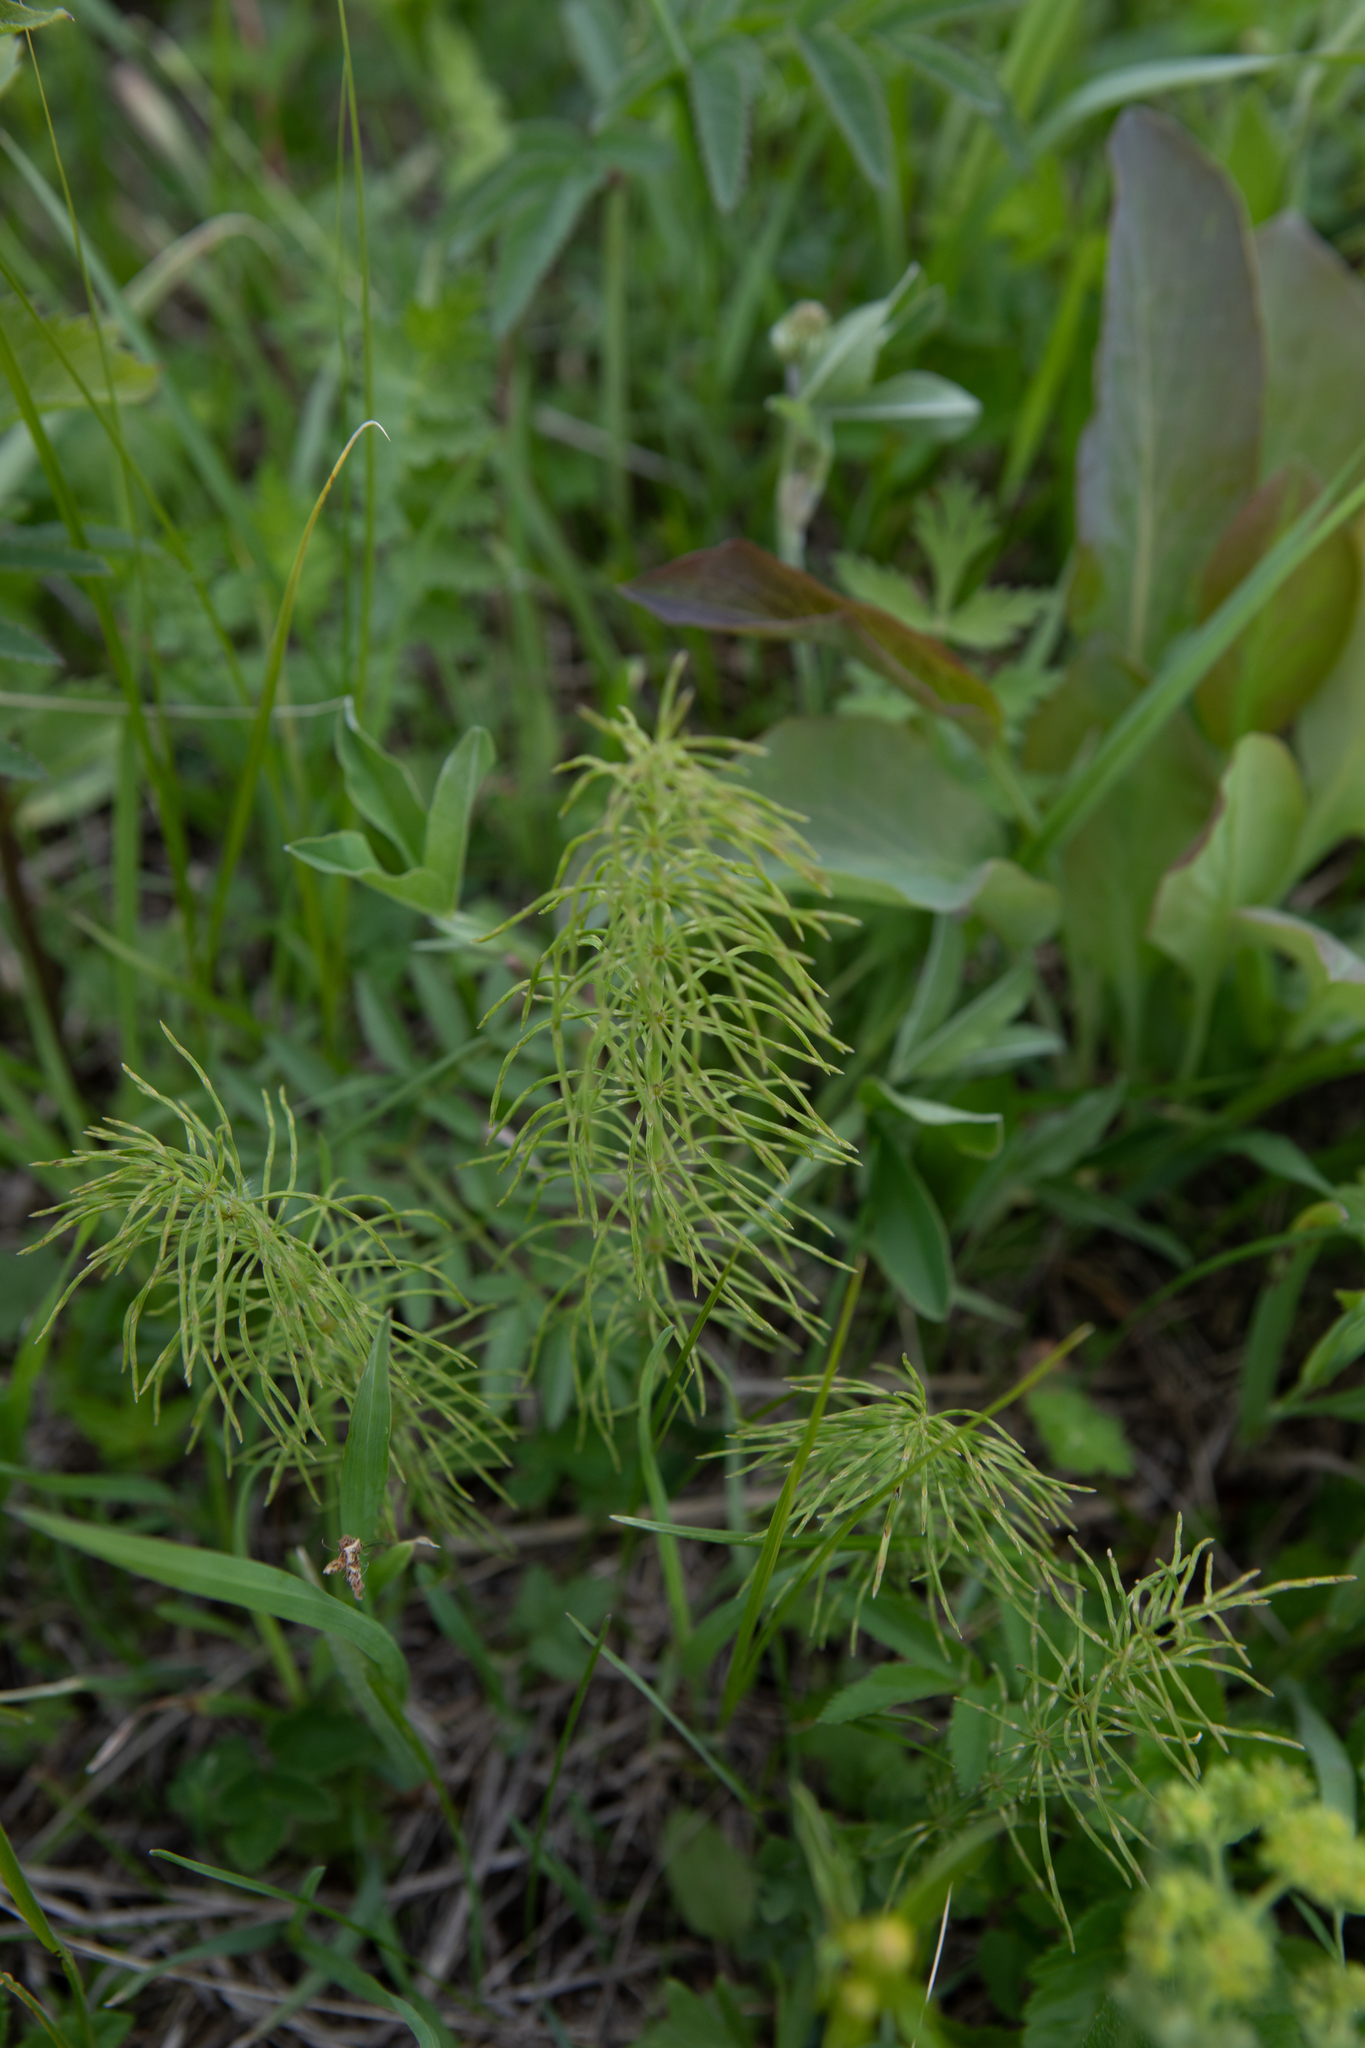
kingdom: Plantae
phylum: Tracheophyta
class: Polypodiopsida
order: Equisetales
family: Equisetaceae
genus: Equisetum
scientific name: Equisetum pratense
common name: Meadow horsetail
